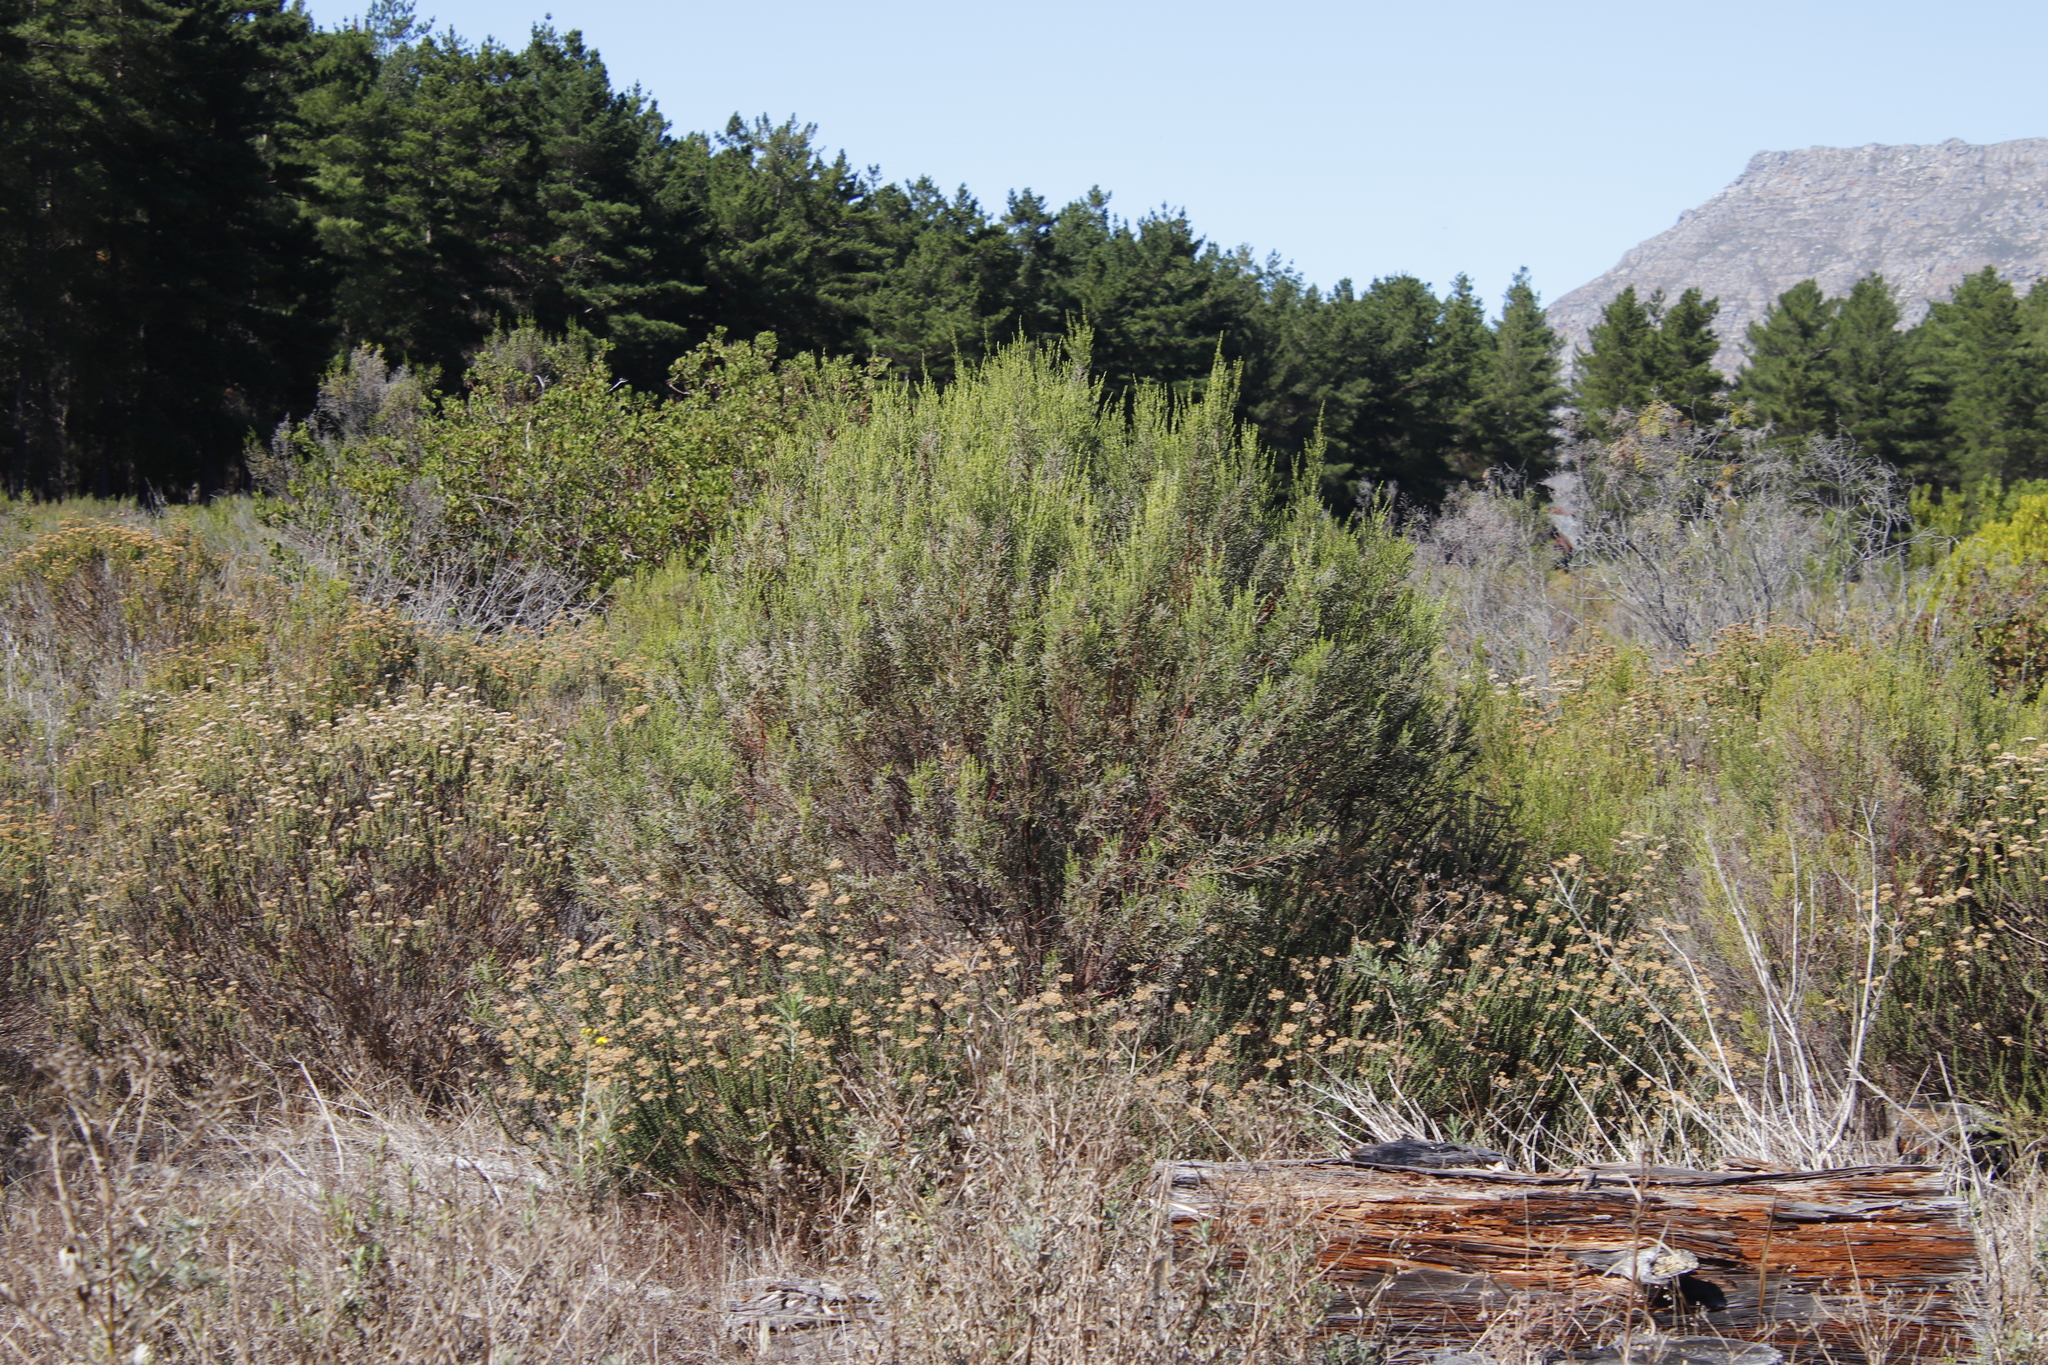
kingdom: Plantae
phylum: Tracheophyta
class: Magnoliopsida
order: Malvales
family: Thymelaeaceae
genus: Passerina
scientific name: Passerina corymbosa
